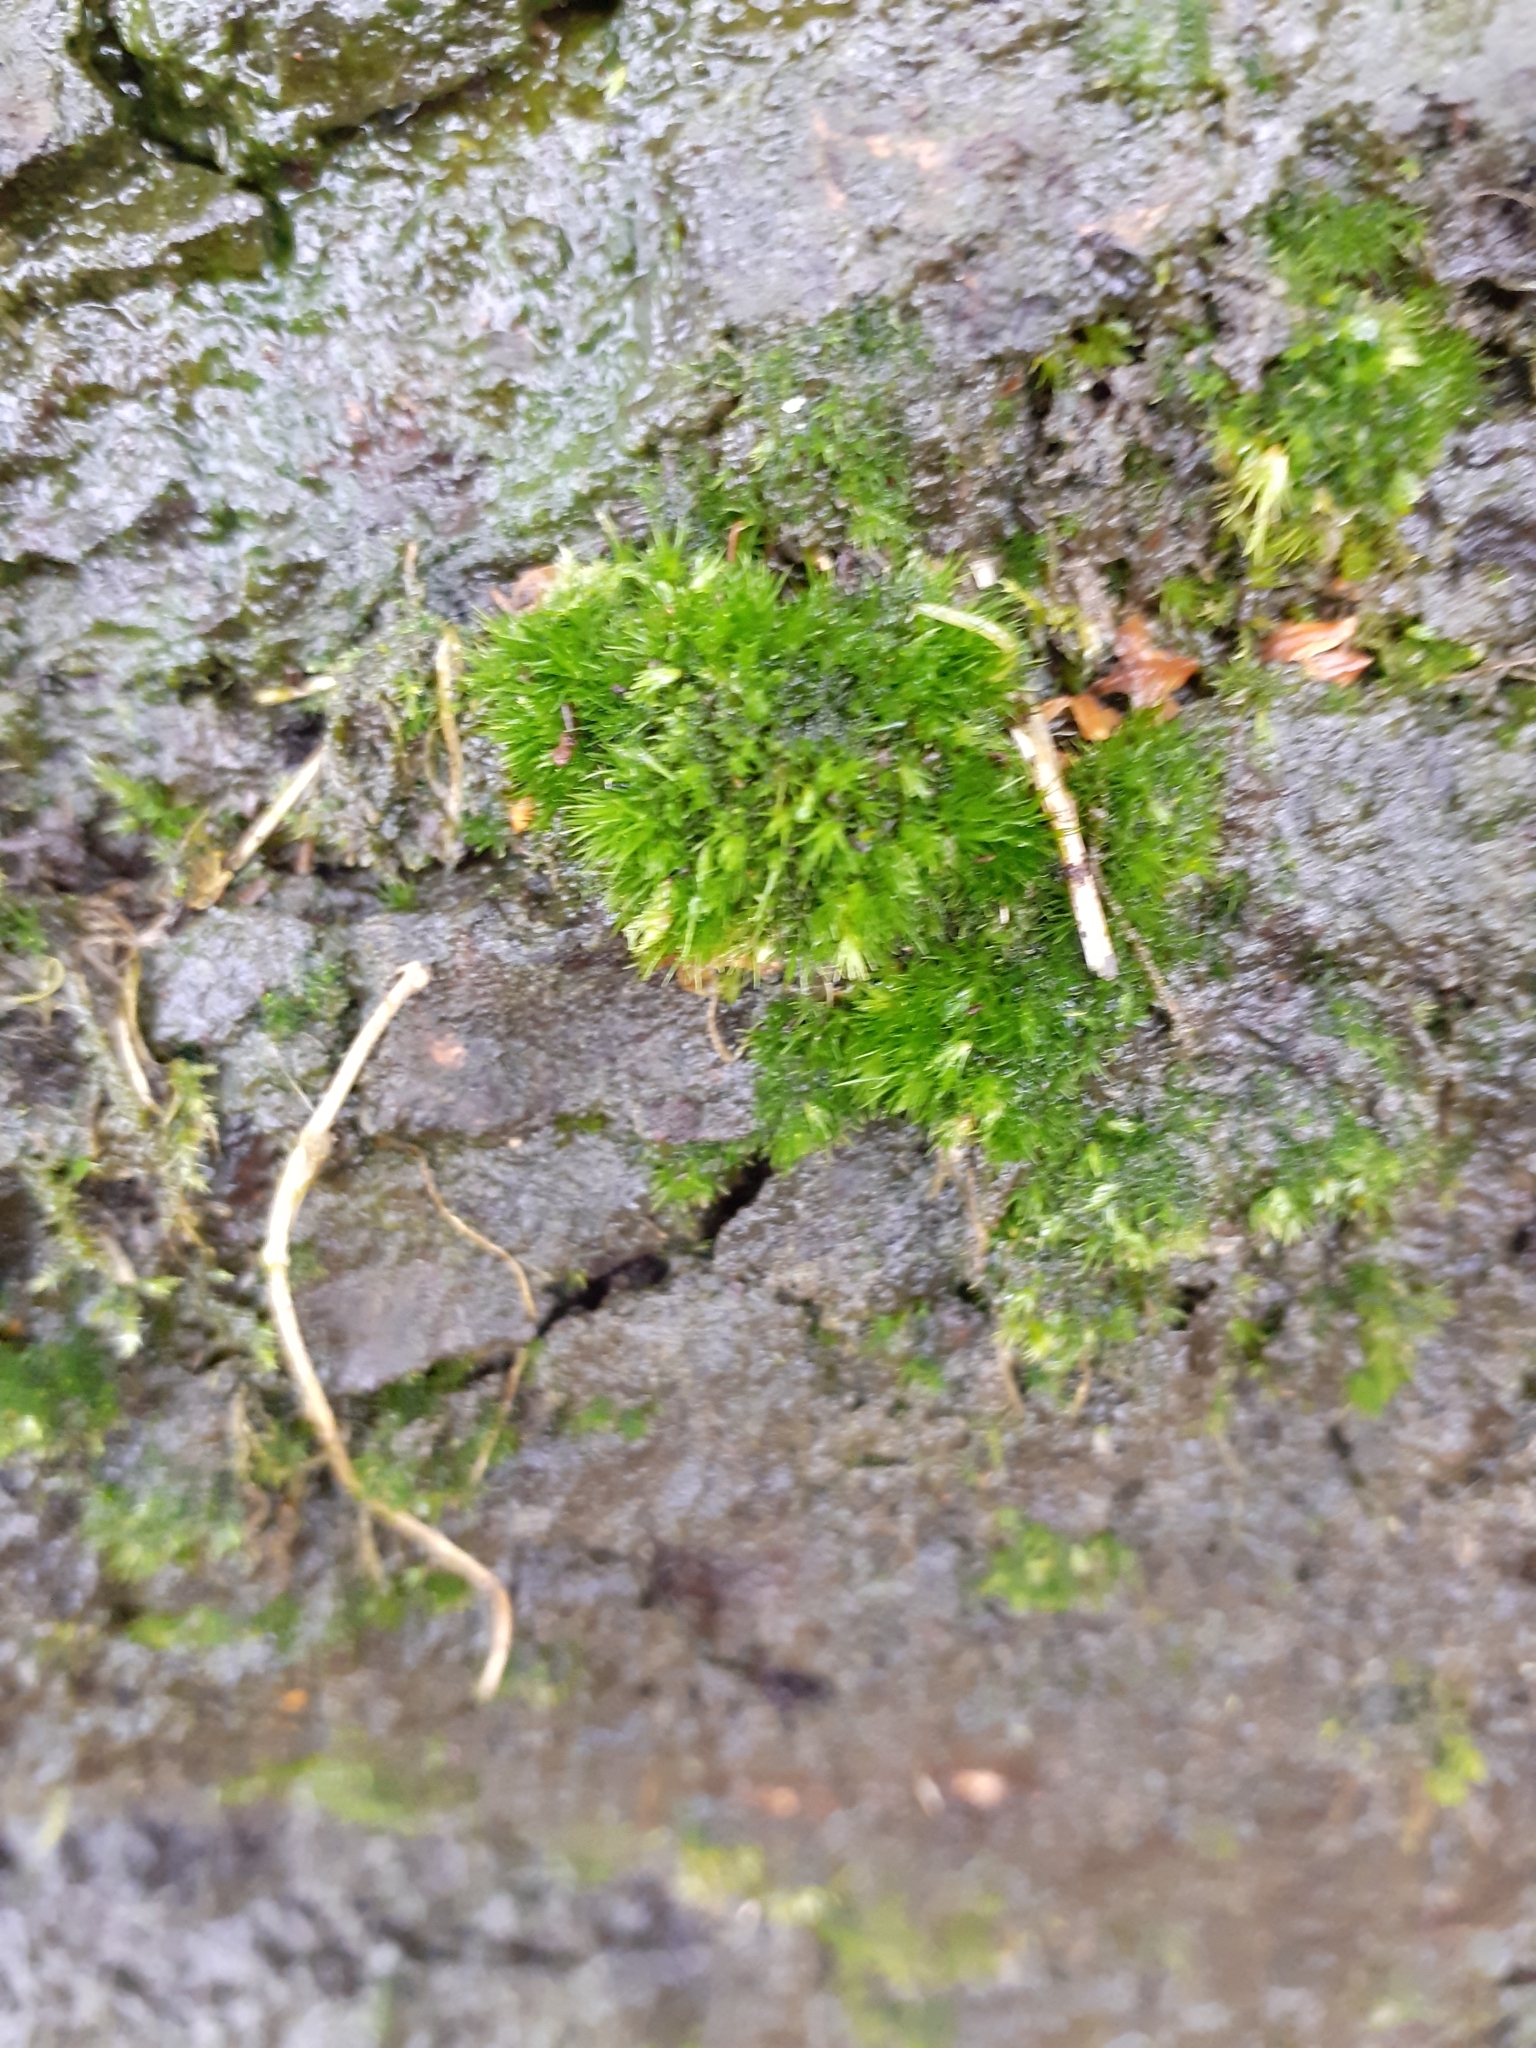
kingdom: Plantae
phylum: Bryophyta
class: Bryopsida
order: Dicranales
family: Leucobryaceae
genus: Campylopus
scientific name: Campylopus introflexus
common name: Heath star moss
